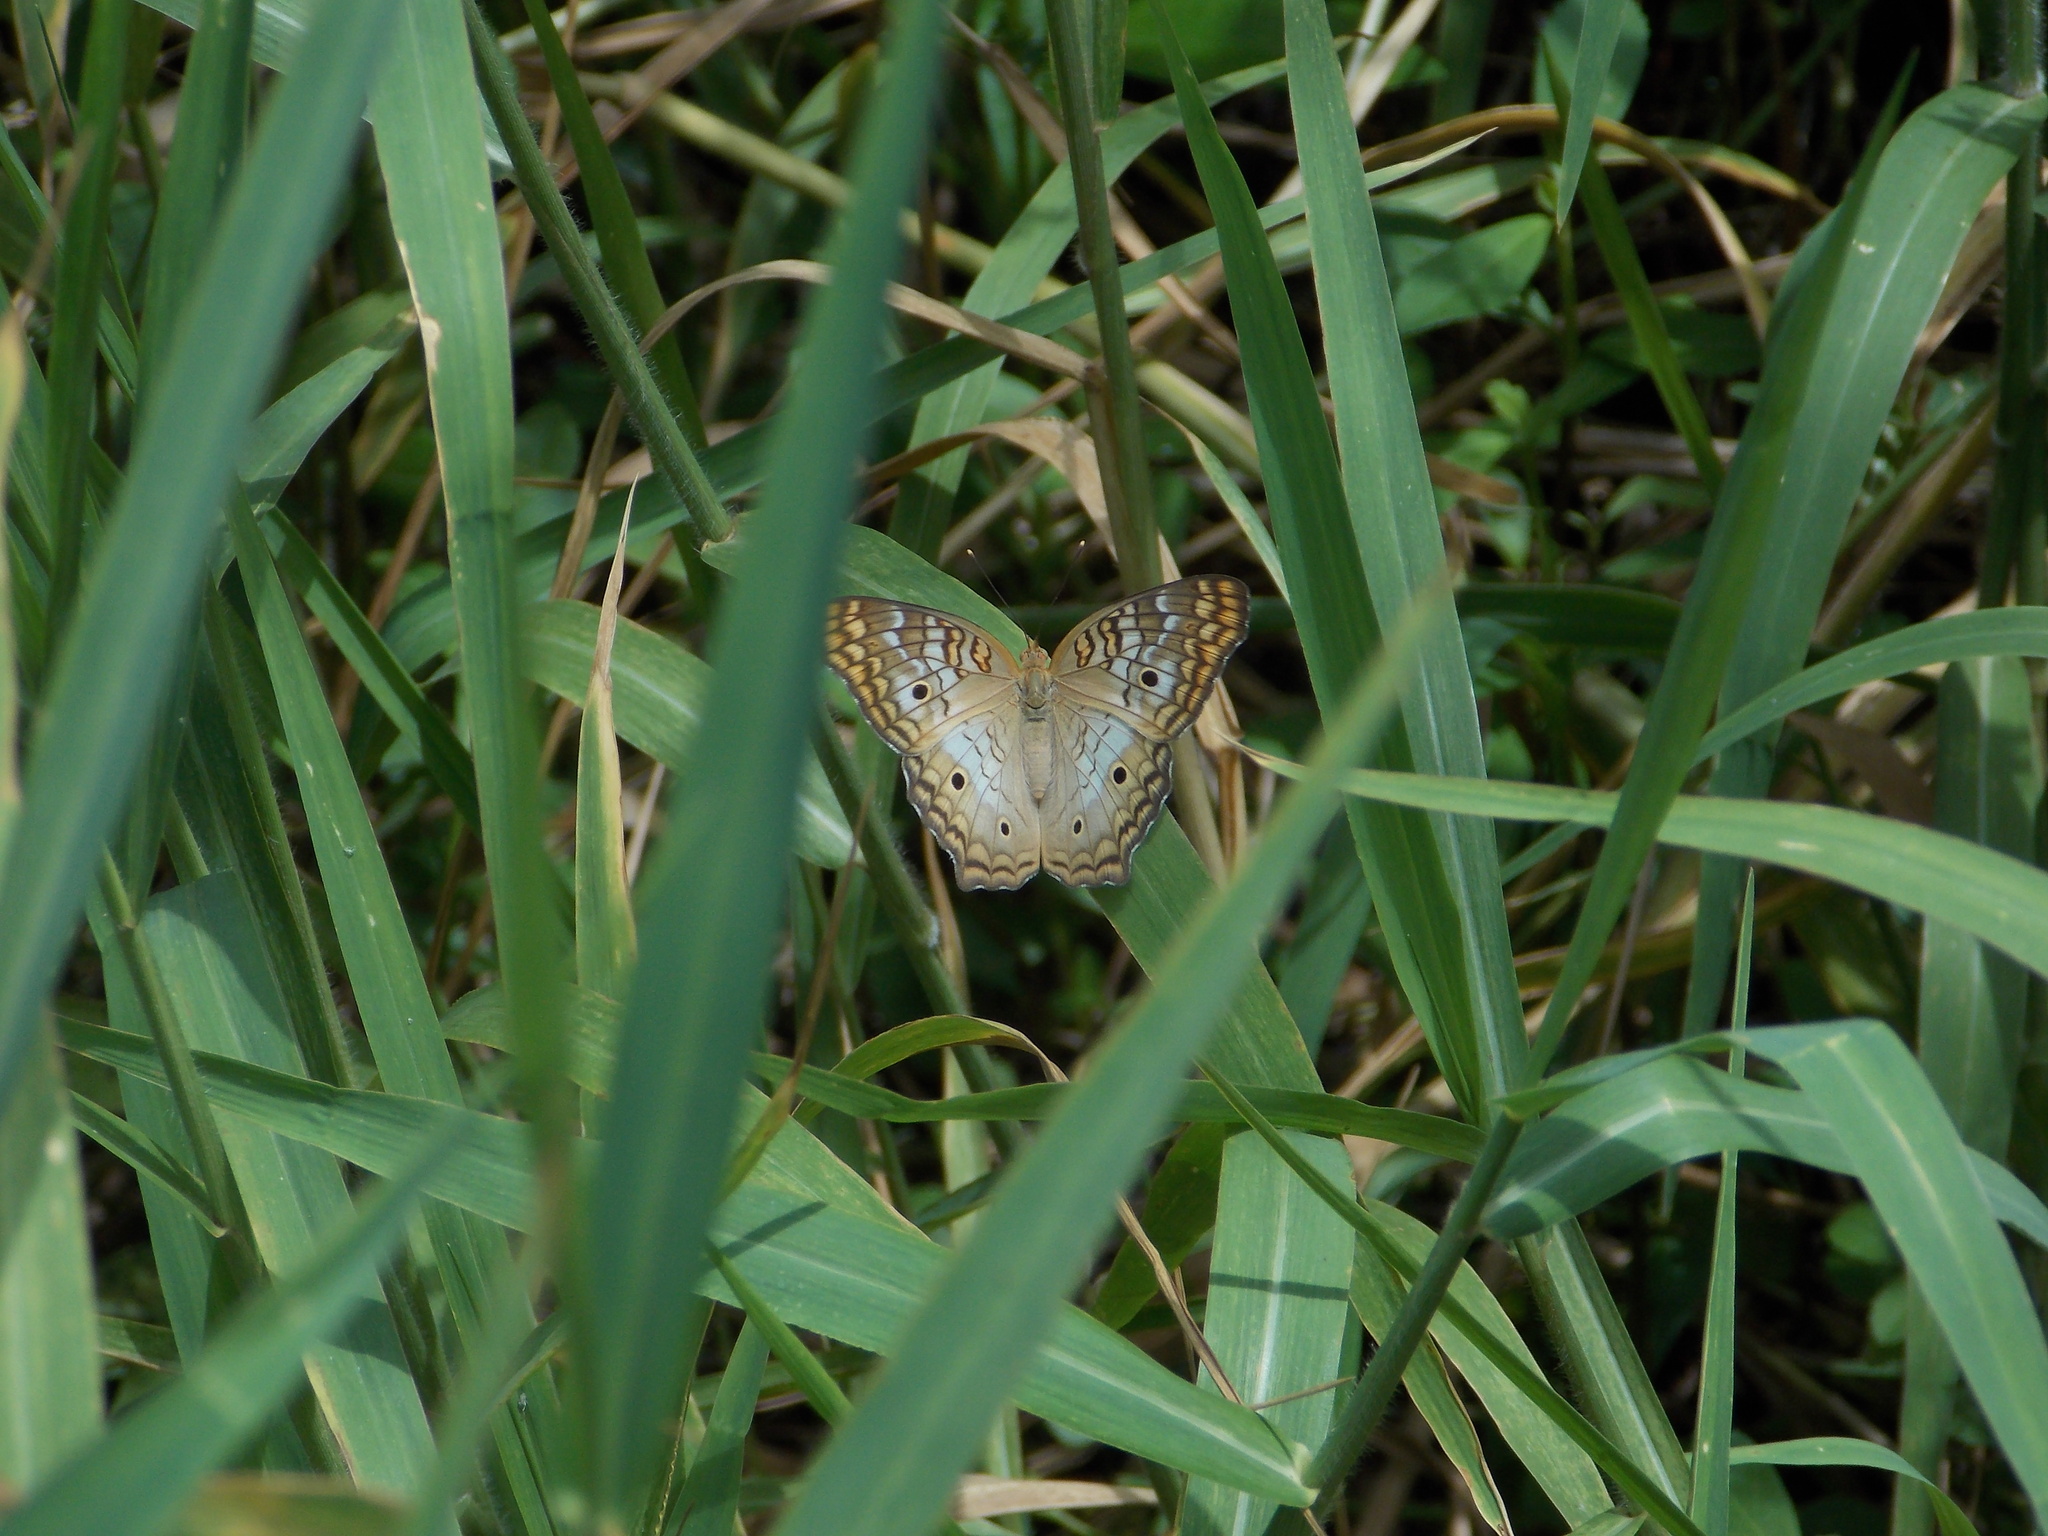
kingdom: Animalia
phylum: Arthropoda
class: Insecta
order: Lepidoptera
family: Nymphalidae
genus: Anartia
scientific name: Anartia jatrophae
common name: White peacock
